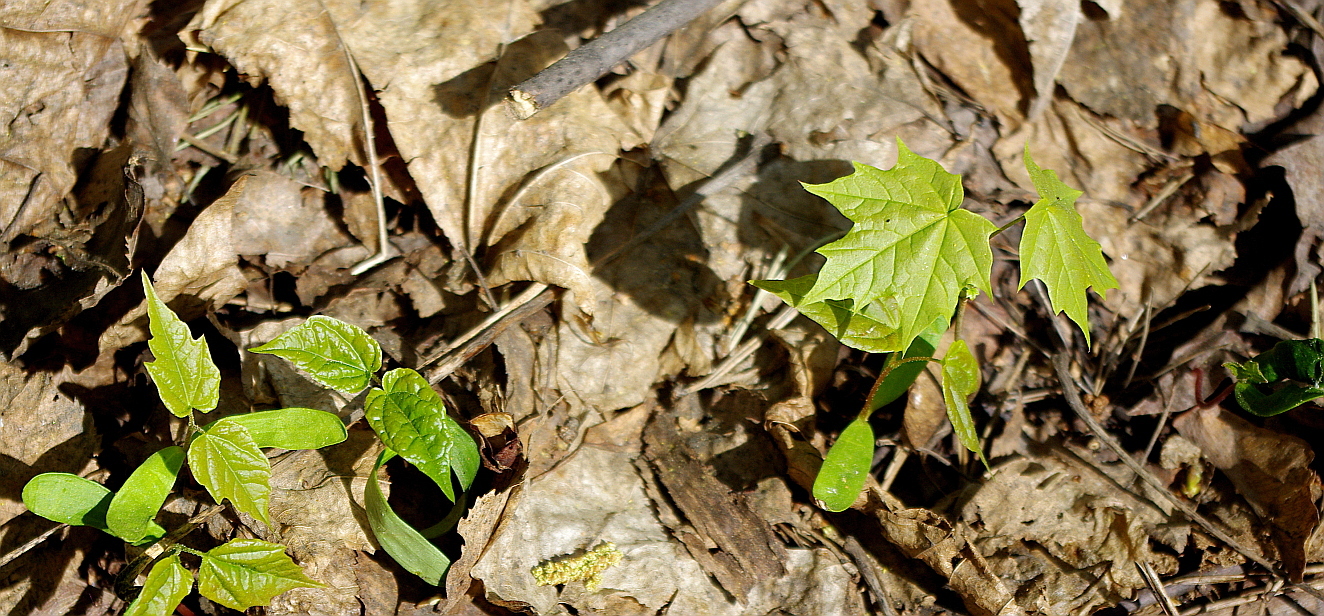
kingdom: Plantae
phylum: Tracheophyta
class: Magnoliopsida
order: Sapindales
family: Sapindaceae
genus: Acer
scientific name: Acer platanoides
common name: Norway maple
